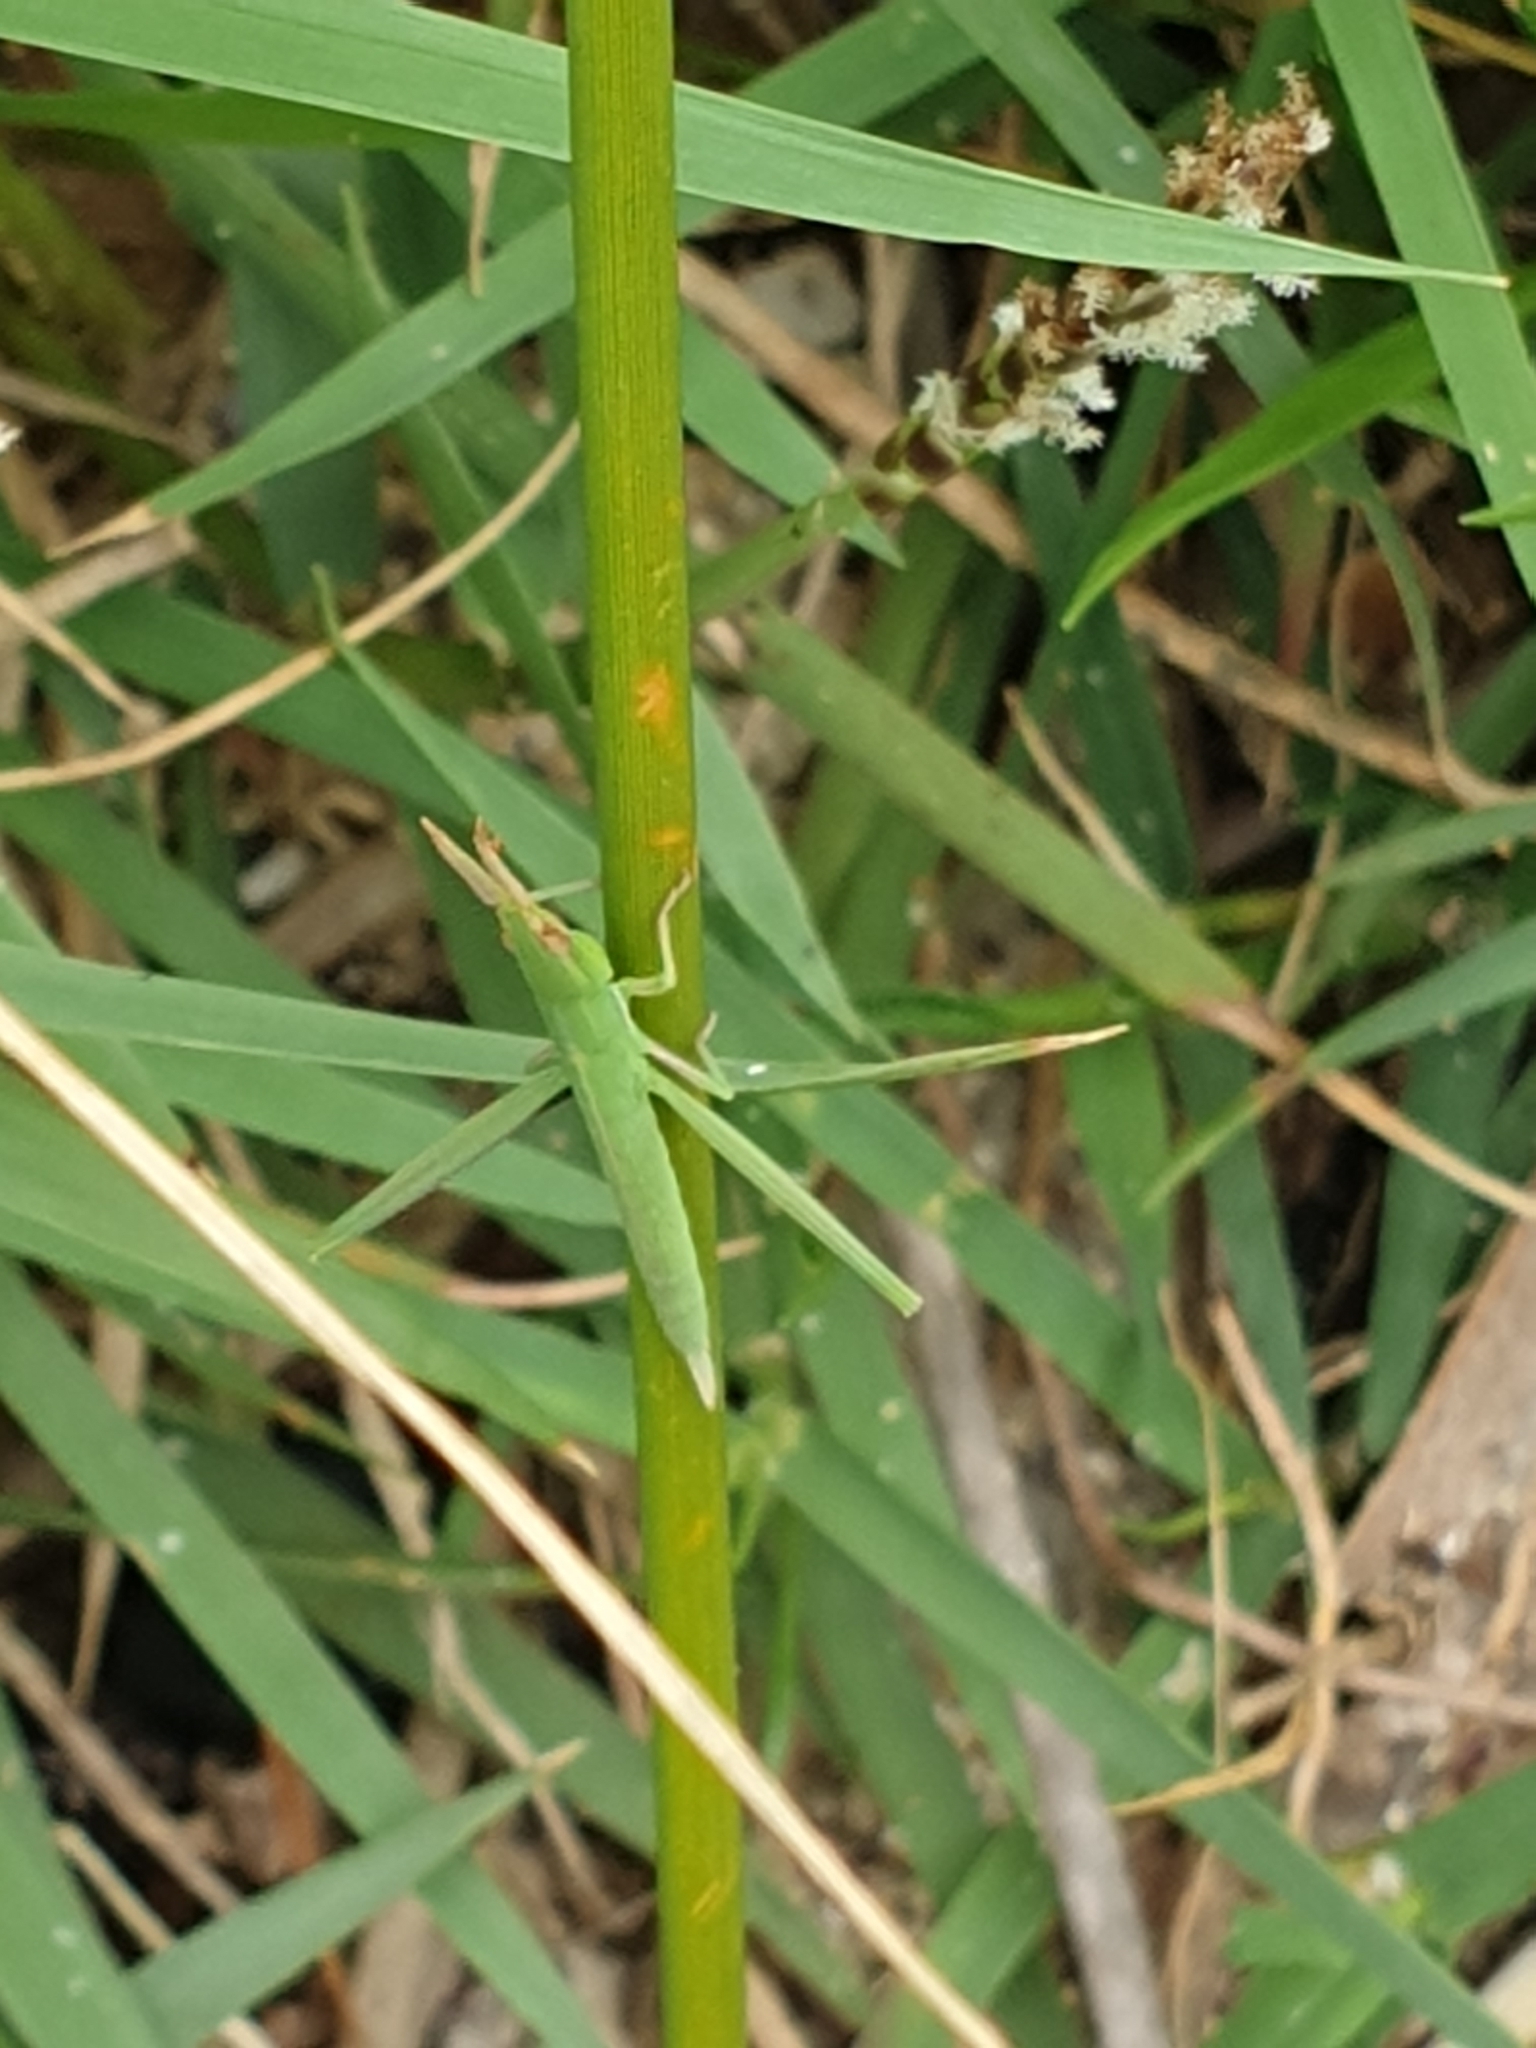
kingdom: Animalia
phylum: Arthropoda
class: Insecta
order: Orthoptera
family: Acrididae
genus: Acrida
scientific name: Acrida conica
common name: Giant green slantface
